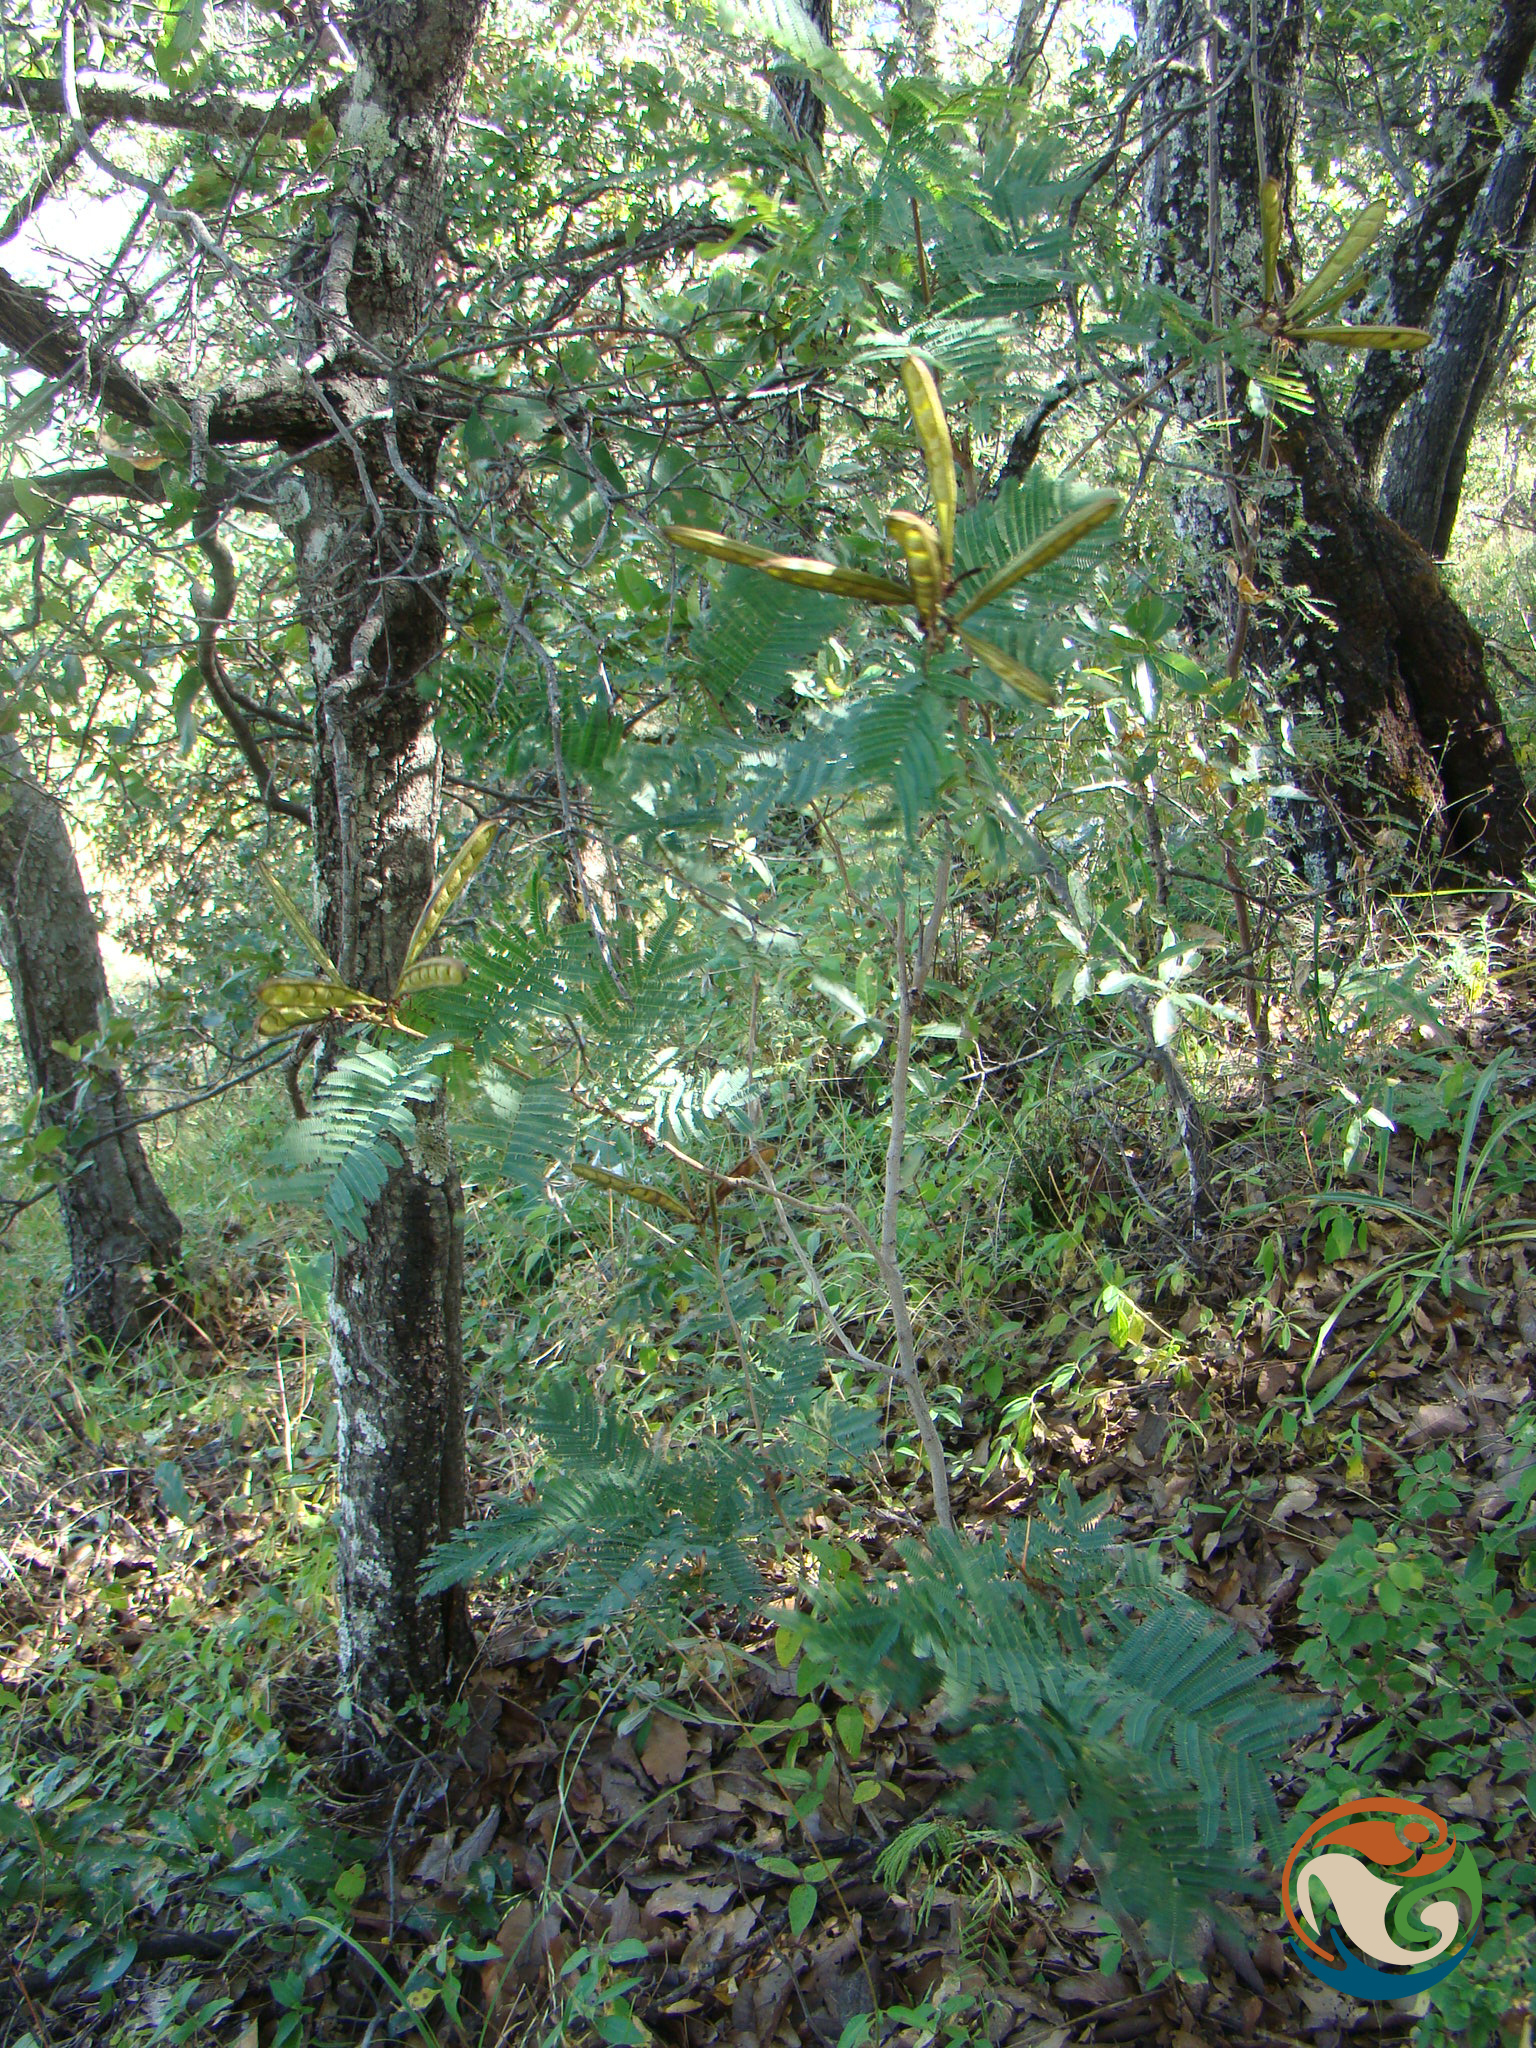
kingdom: Plantae
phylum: Tracheophyta
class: Magnoliopsida
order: Fabales
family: Fabaceae
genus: Calliandra
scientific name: Calliandra houstoniana
